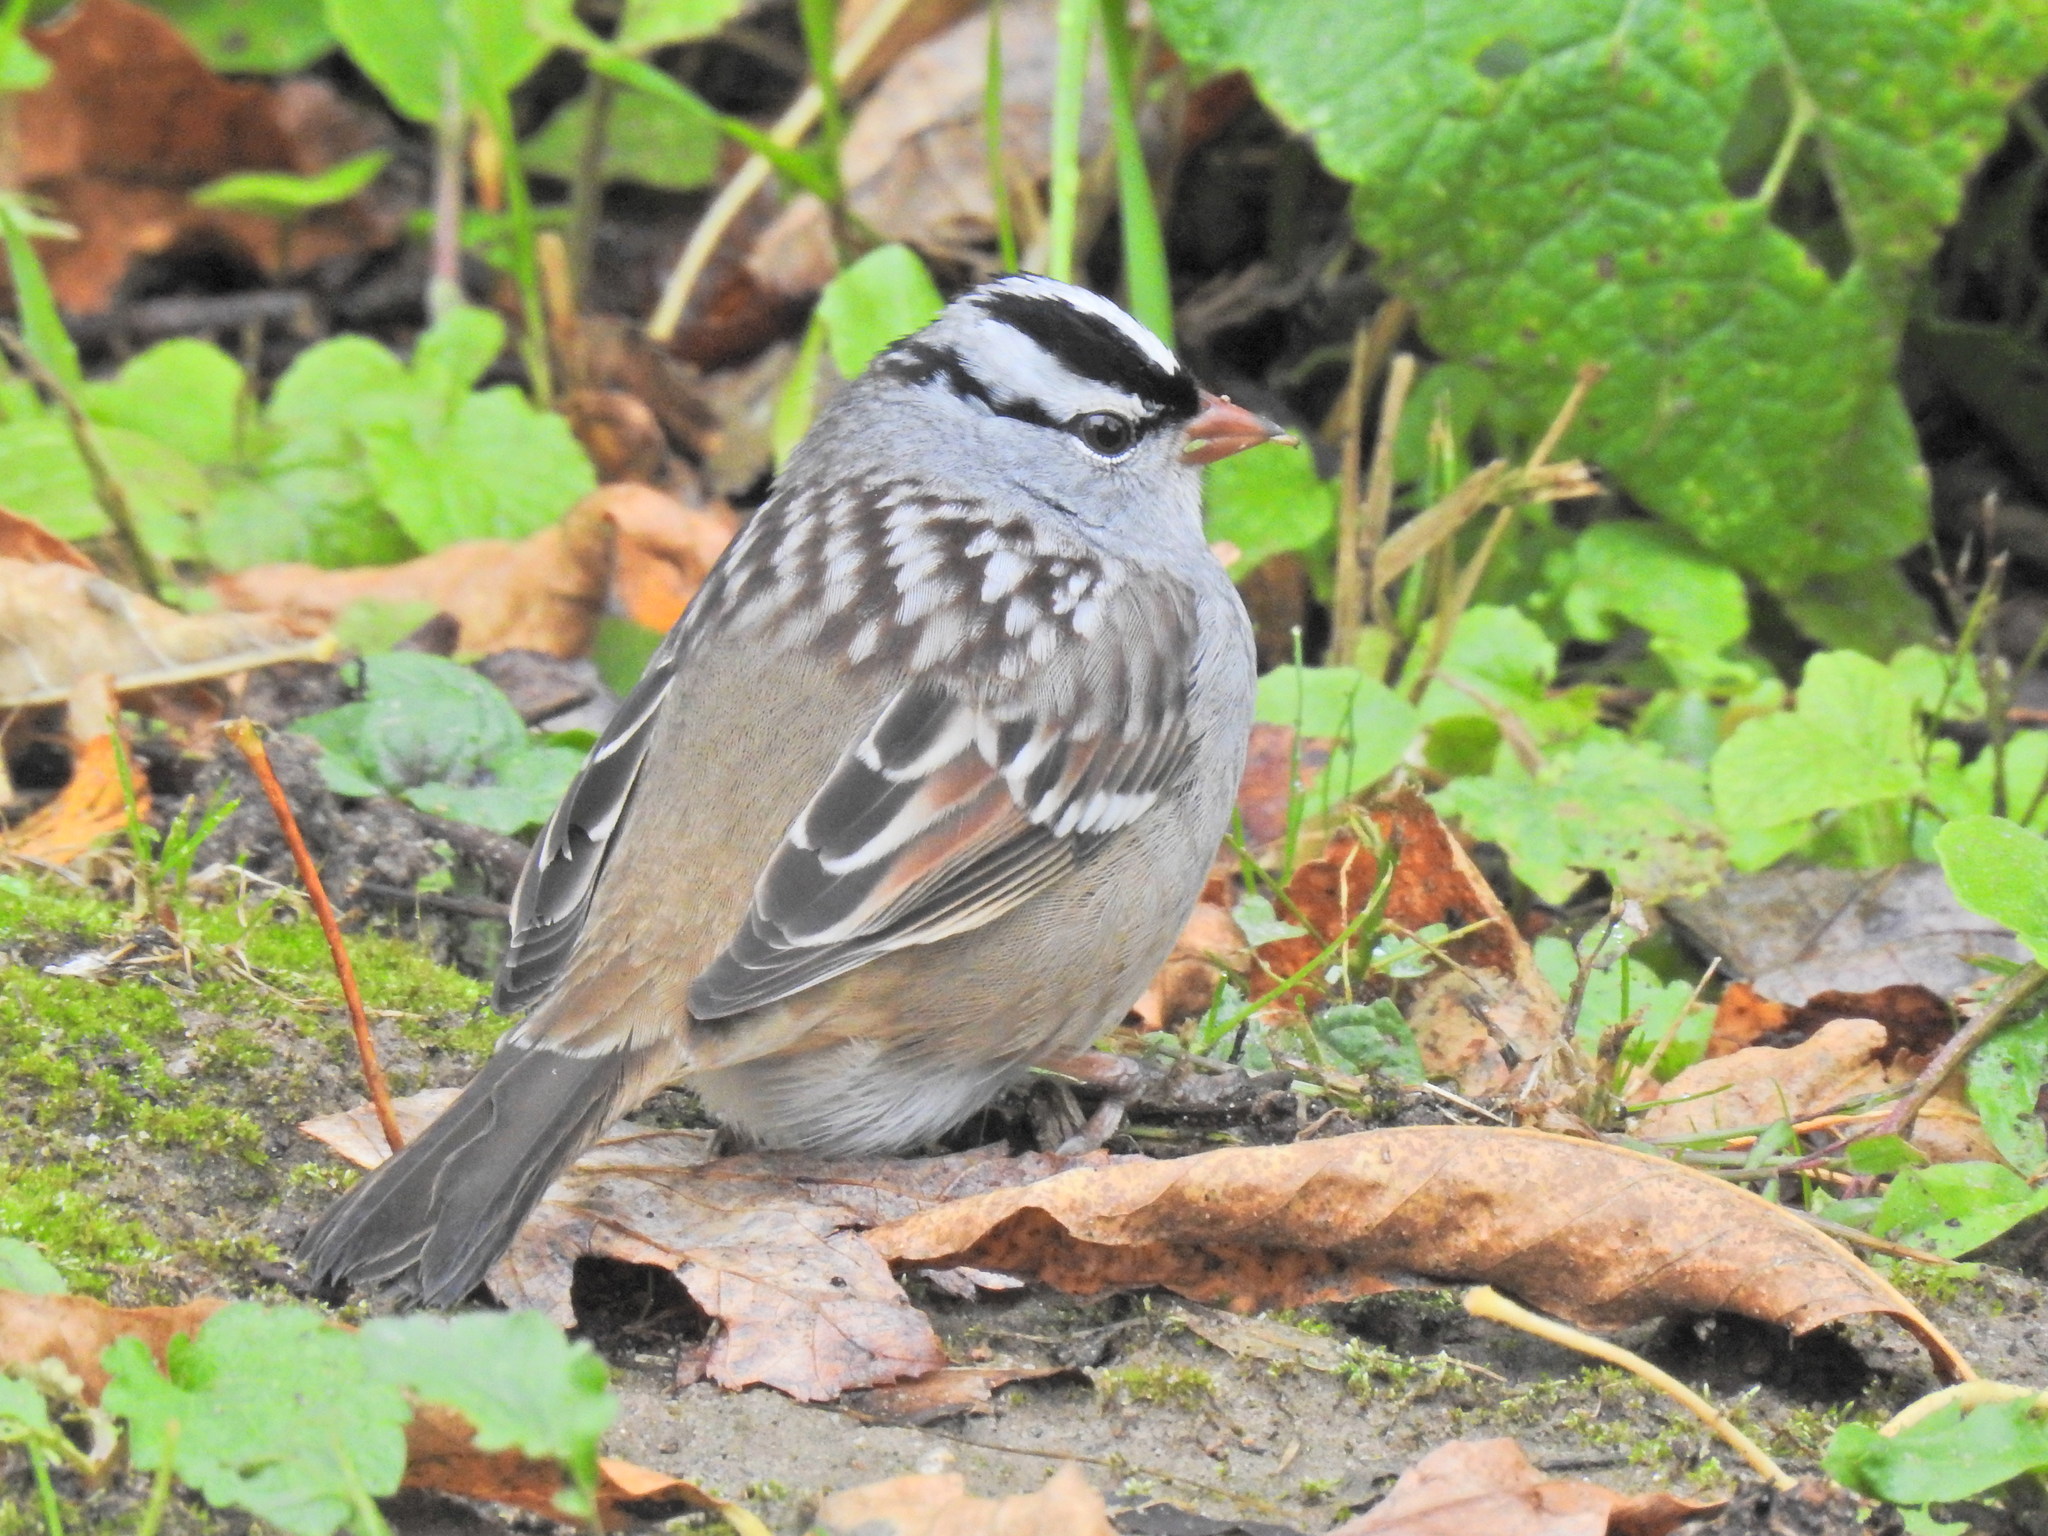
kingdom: Animalia
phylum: Chordata
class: Aves
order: Passeriformes
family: Passerellidae
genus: Zonotrichia
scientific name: Zonotrichia leucophrys
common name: White-crowned sparrow
